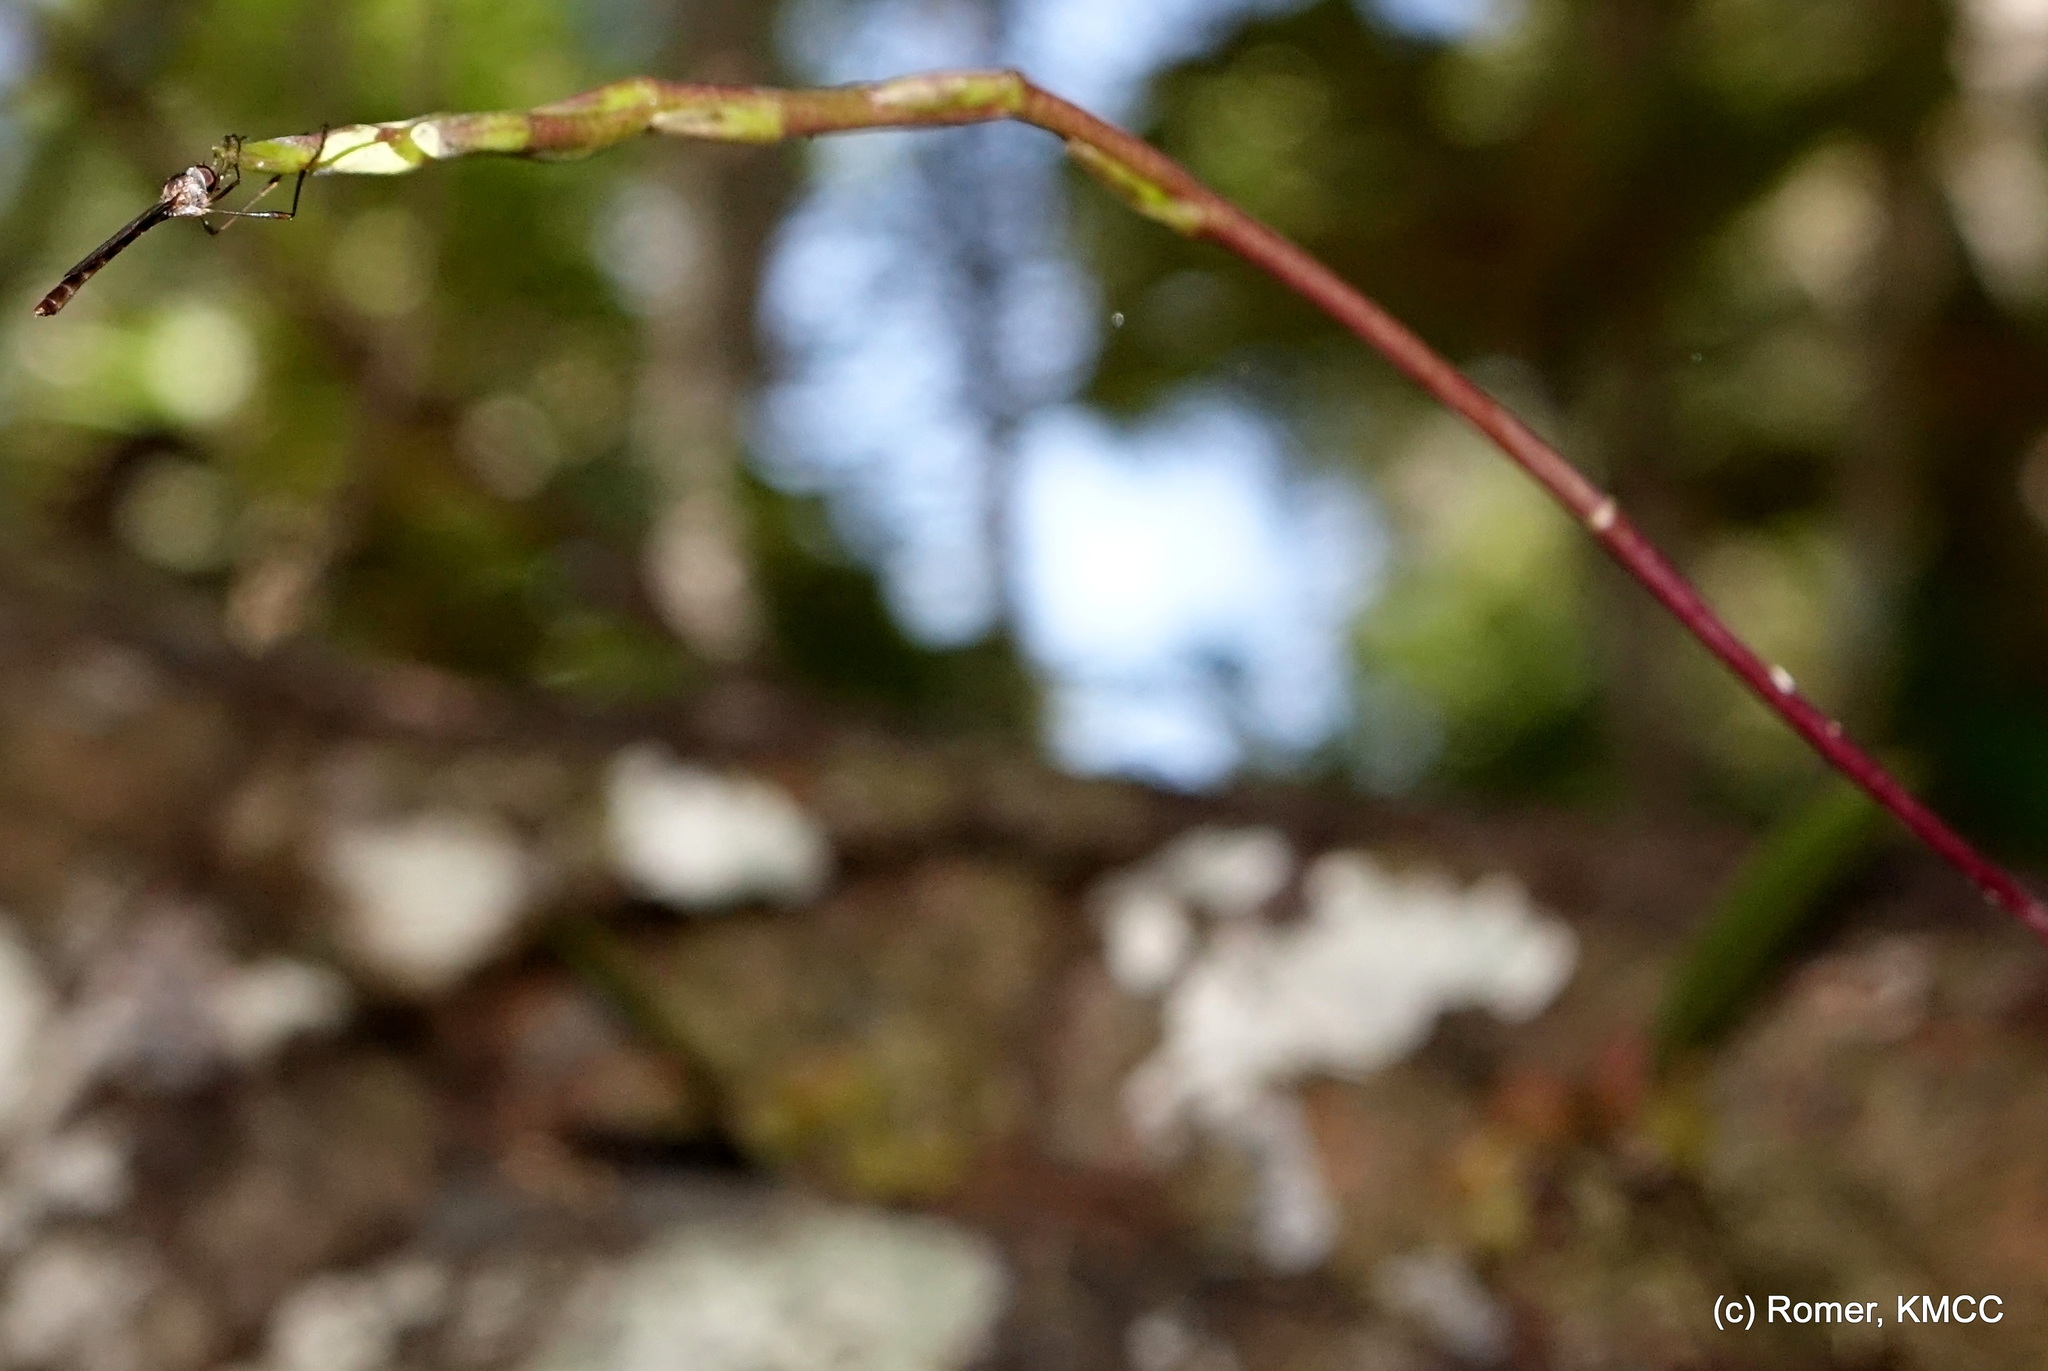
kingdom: Plantae
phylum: Tracheophyta
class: Liliopsida
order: Asparagales
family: Orchidaceae
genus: Bulbophyllum
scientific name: Bulbophyllum erectum
